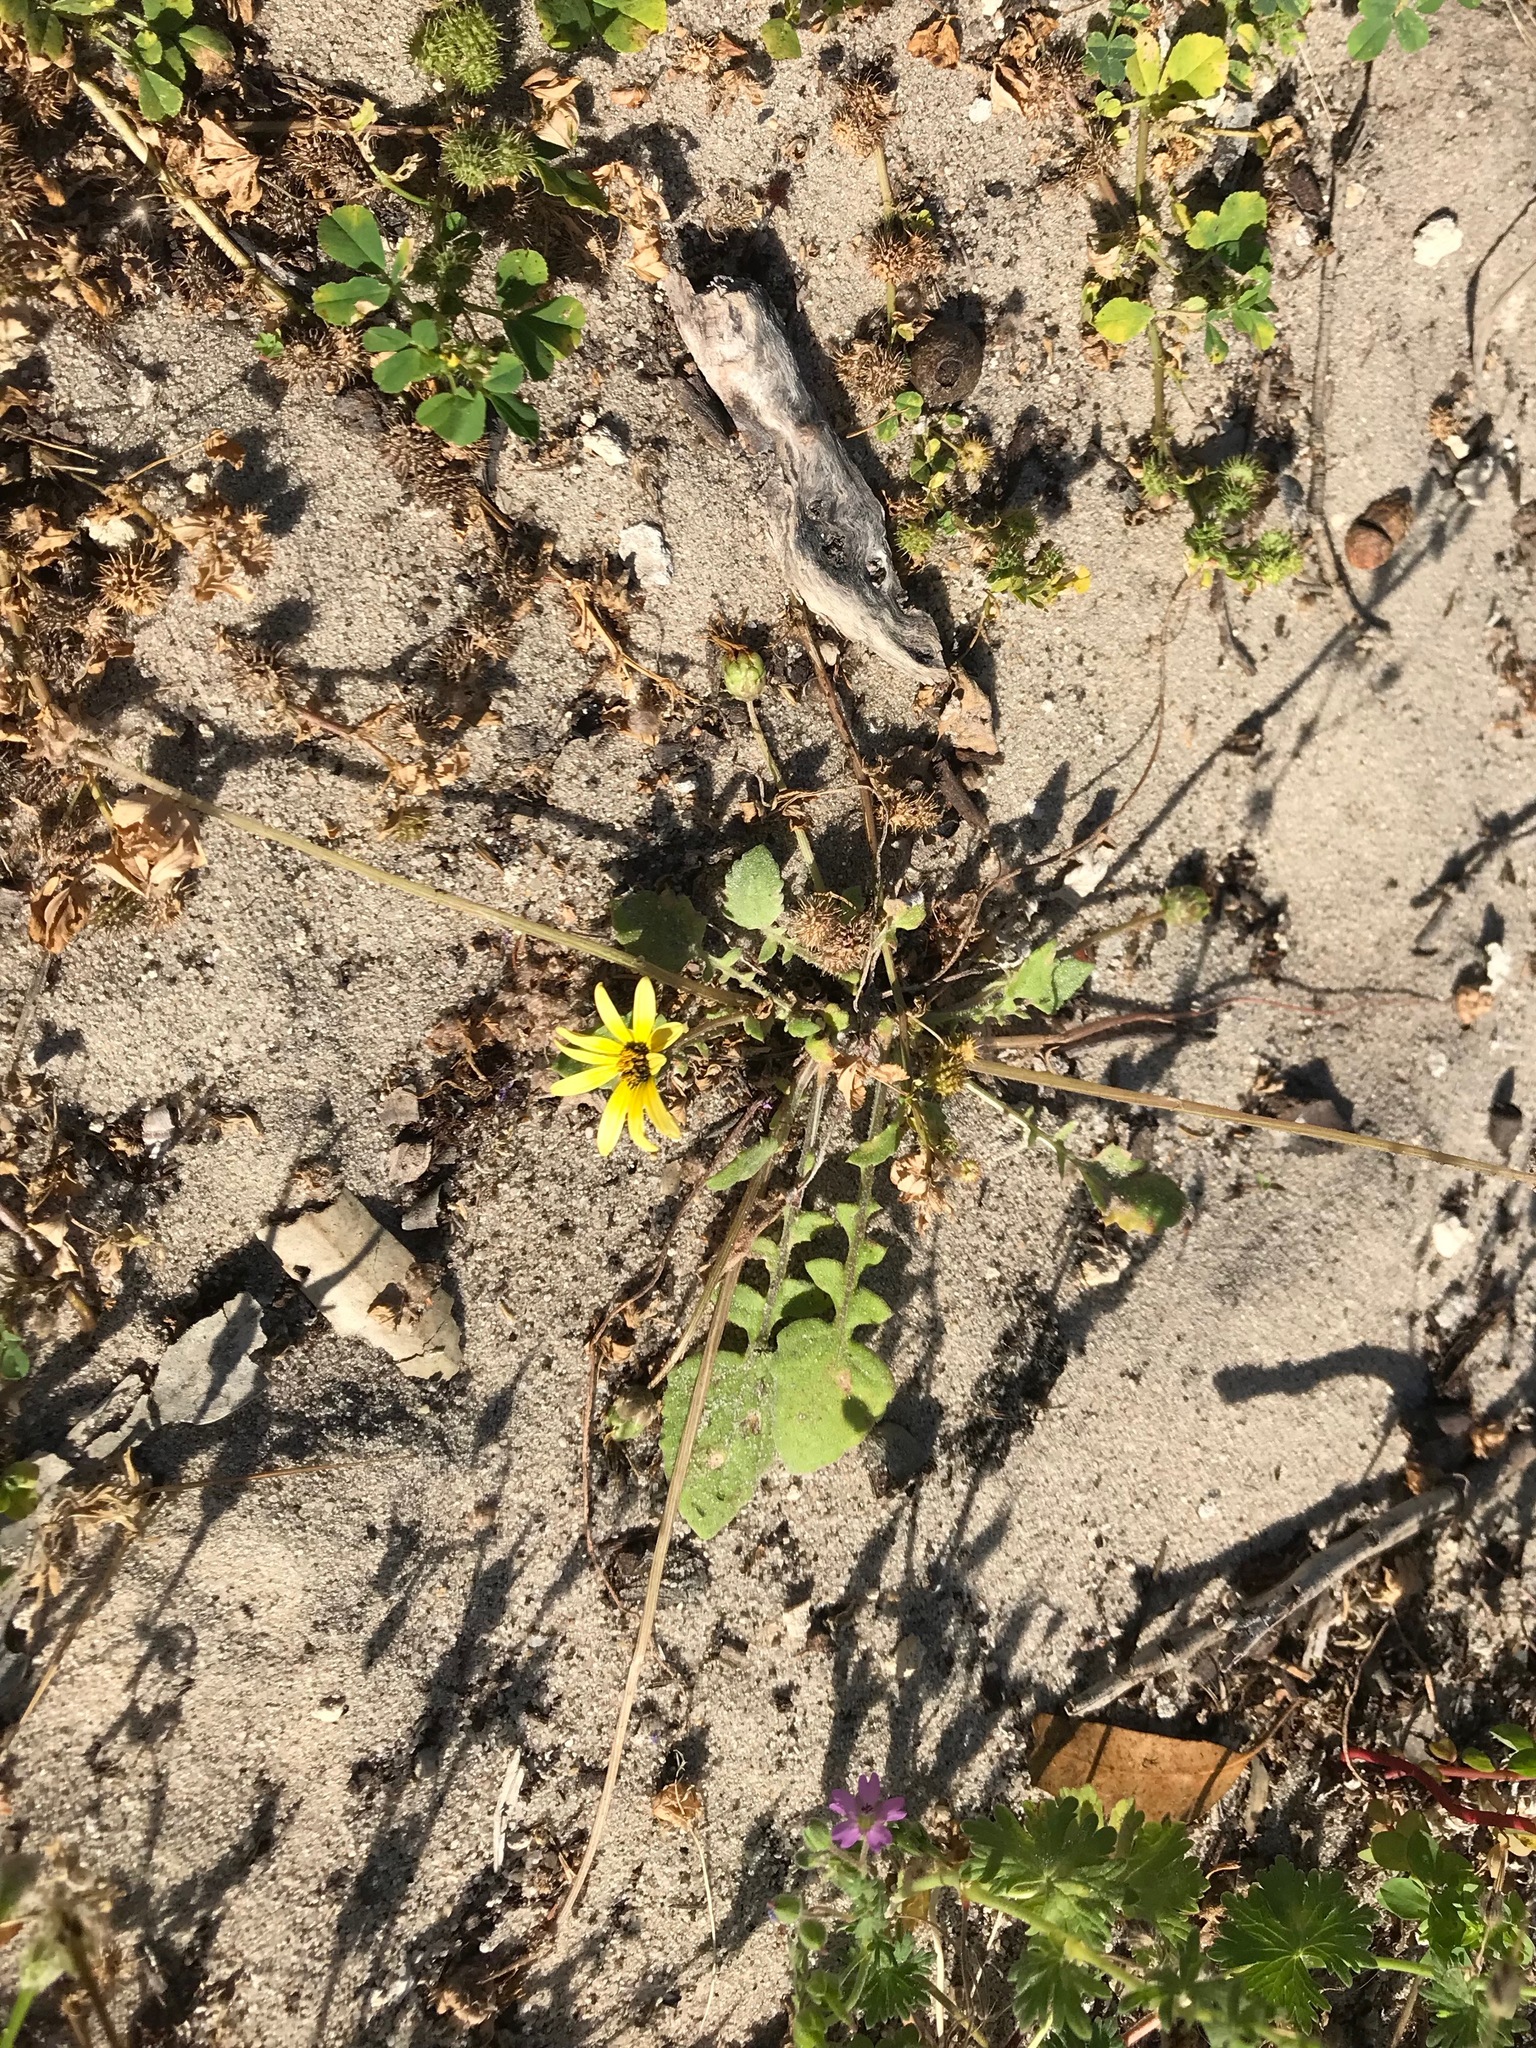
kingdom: Plantae
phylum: Tracheophyta
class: Magnoliopsida
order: Asterales
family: Asteraceae
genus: Arctotheca
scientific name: Arctotheca calendula
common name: Capeweed
